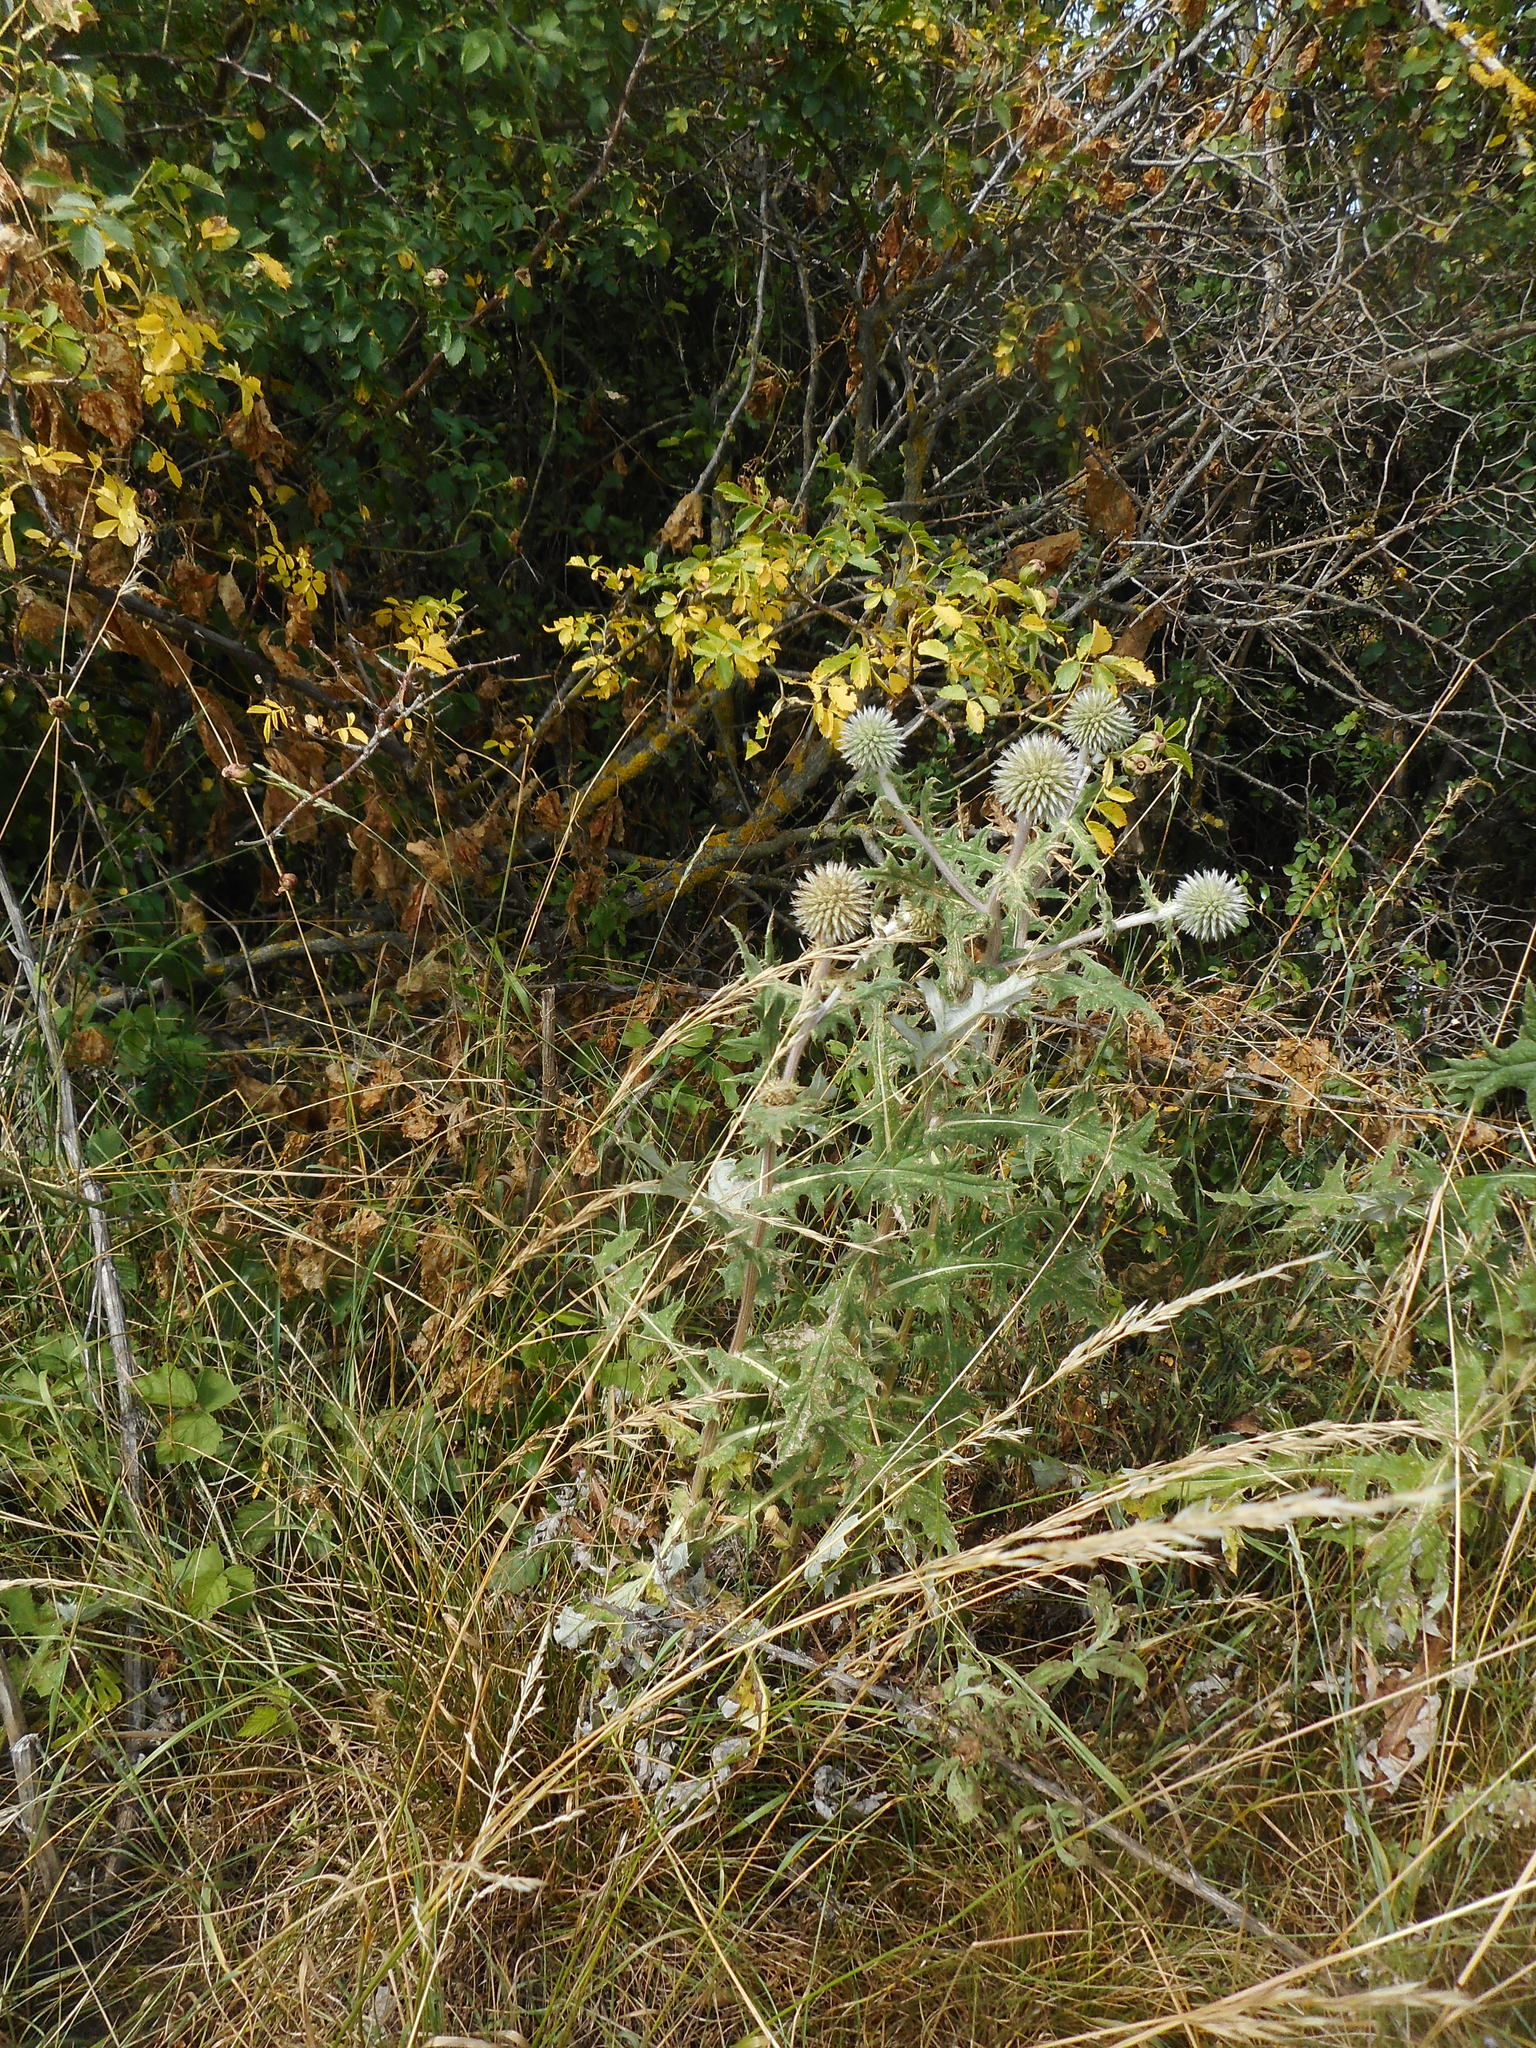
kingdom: Plantae
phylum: Tracheophyta
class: Magnoliopsida
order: Asterales
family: Asteraceae
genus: Echinops
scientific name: Echinops sphaerocephalus
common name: Glandular globe-thistle
